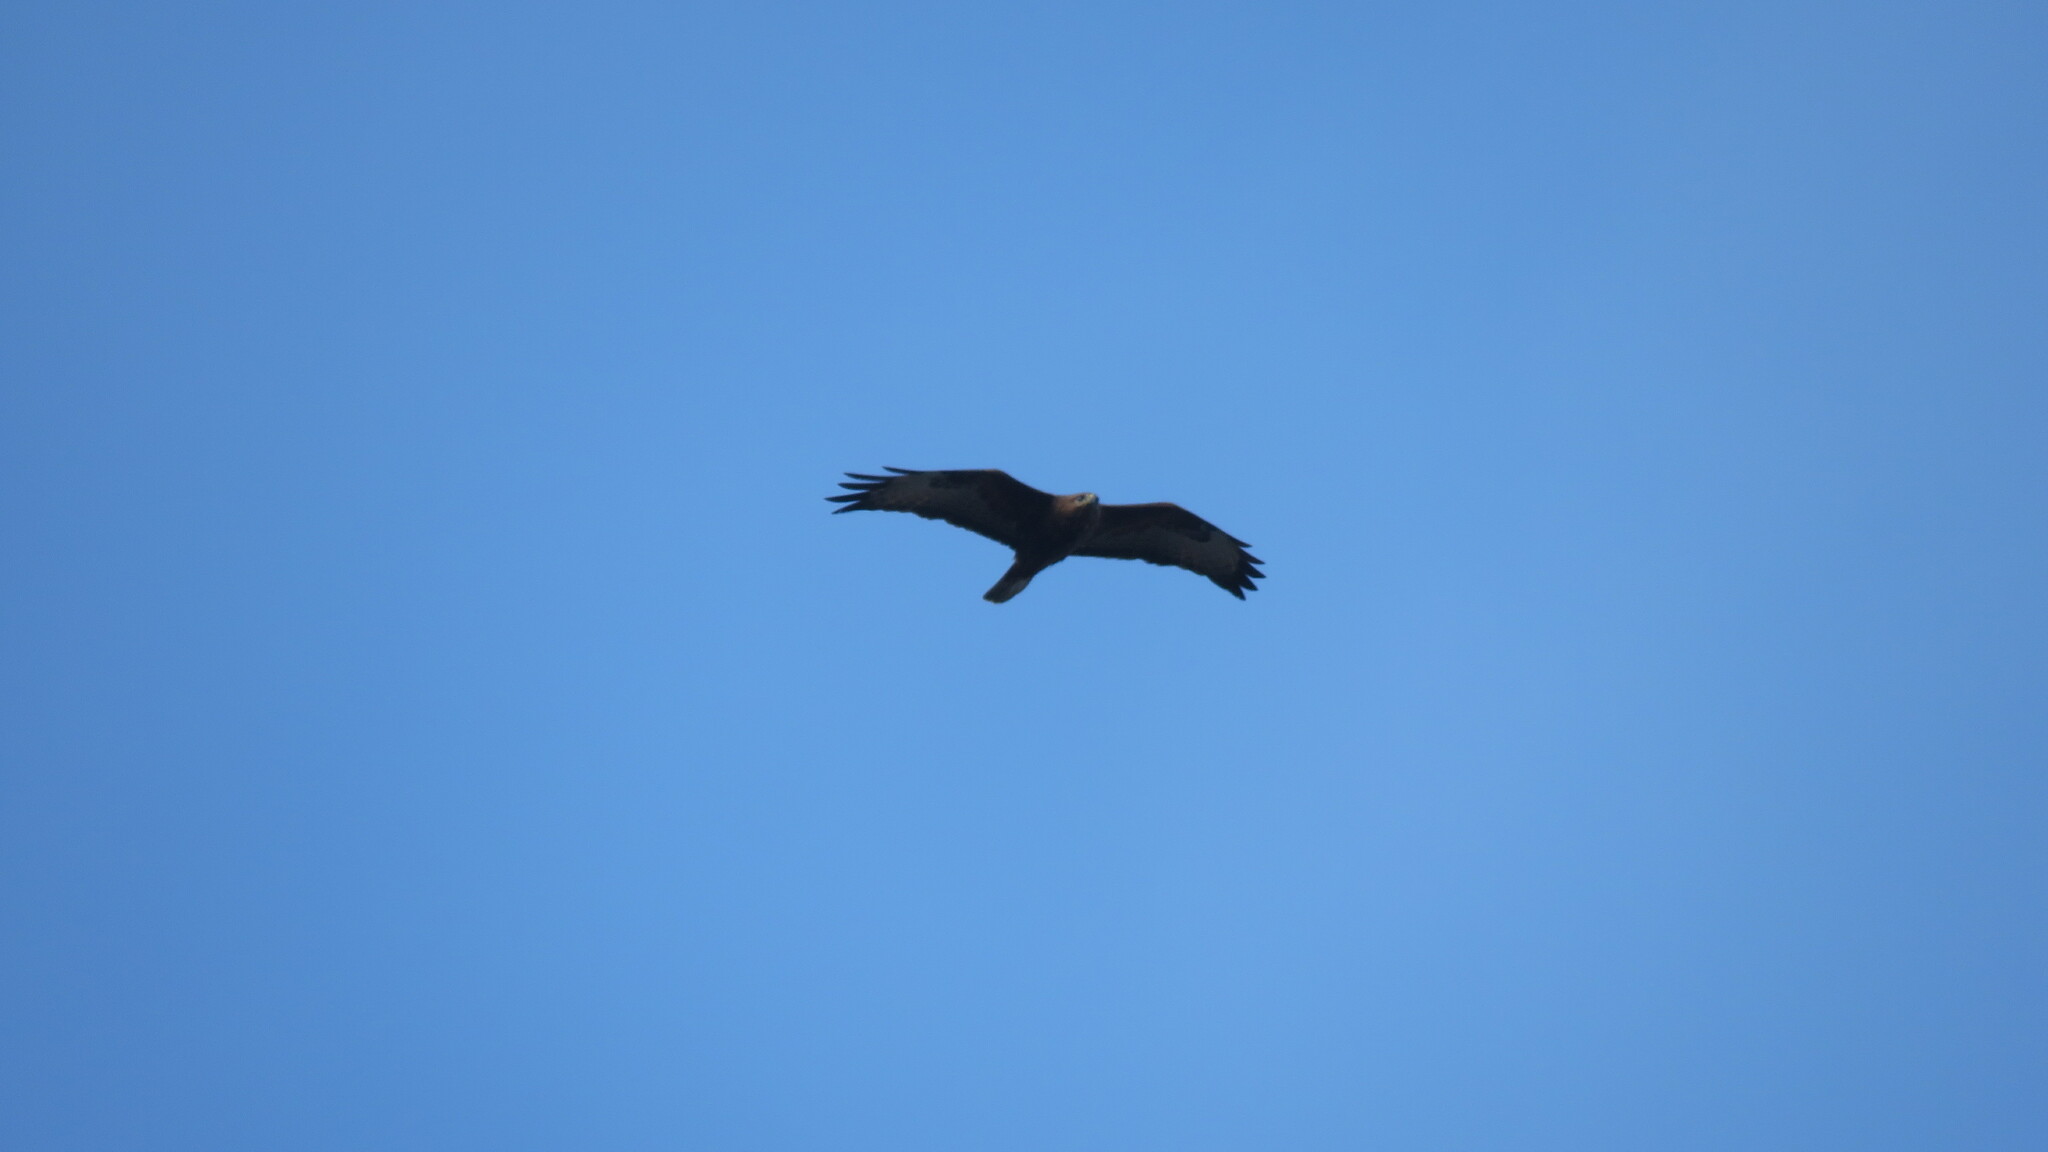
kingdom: Animalia
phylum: Chordata
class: Aves
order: Accipitriformes
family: Accipitridae
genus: Buteo
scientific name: Buteo buteo
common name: Common buzzard
